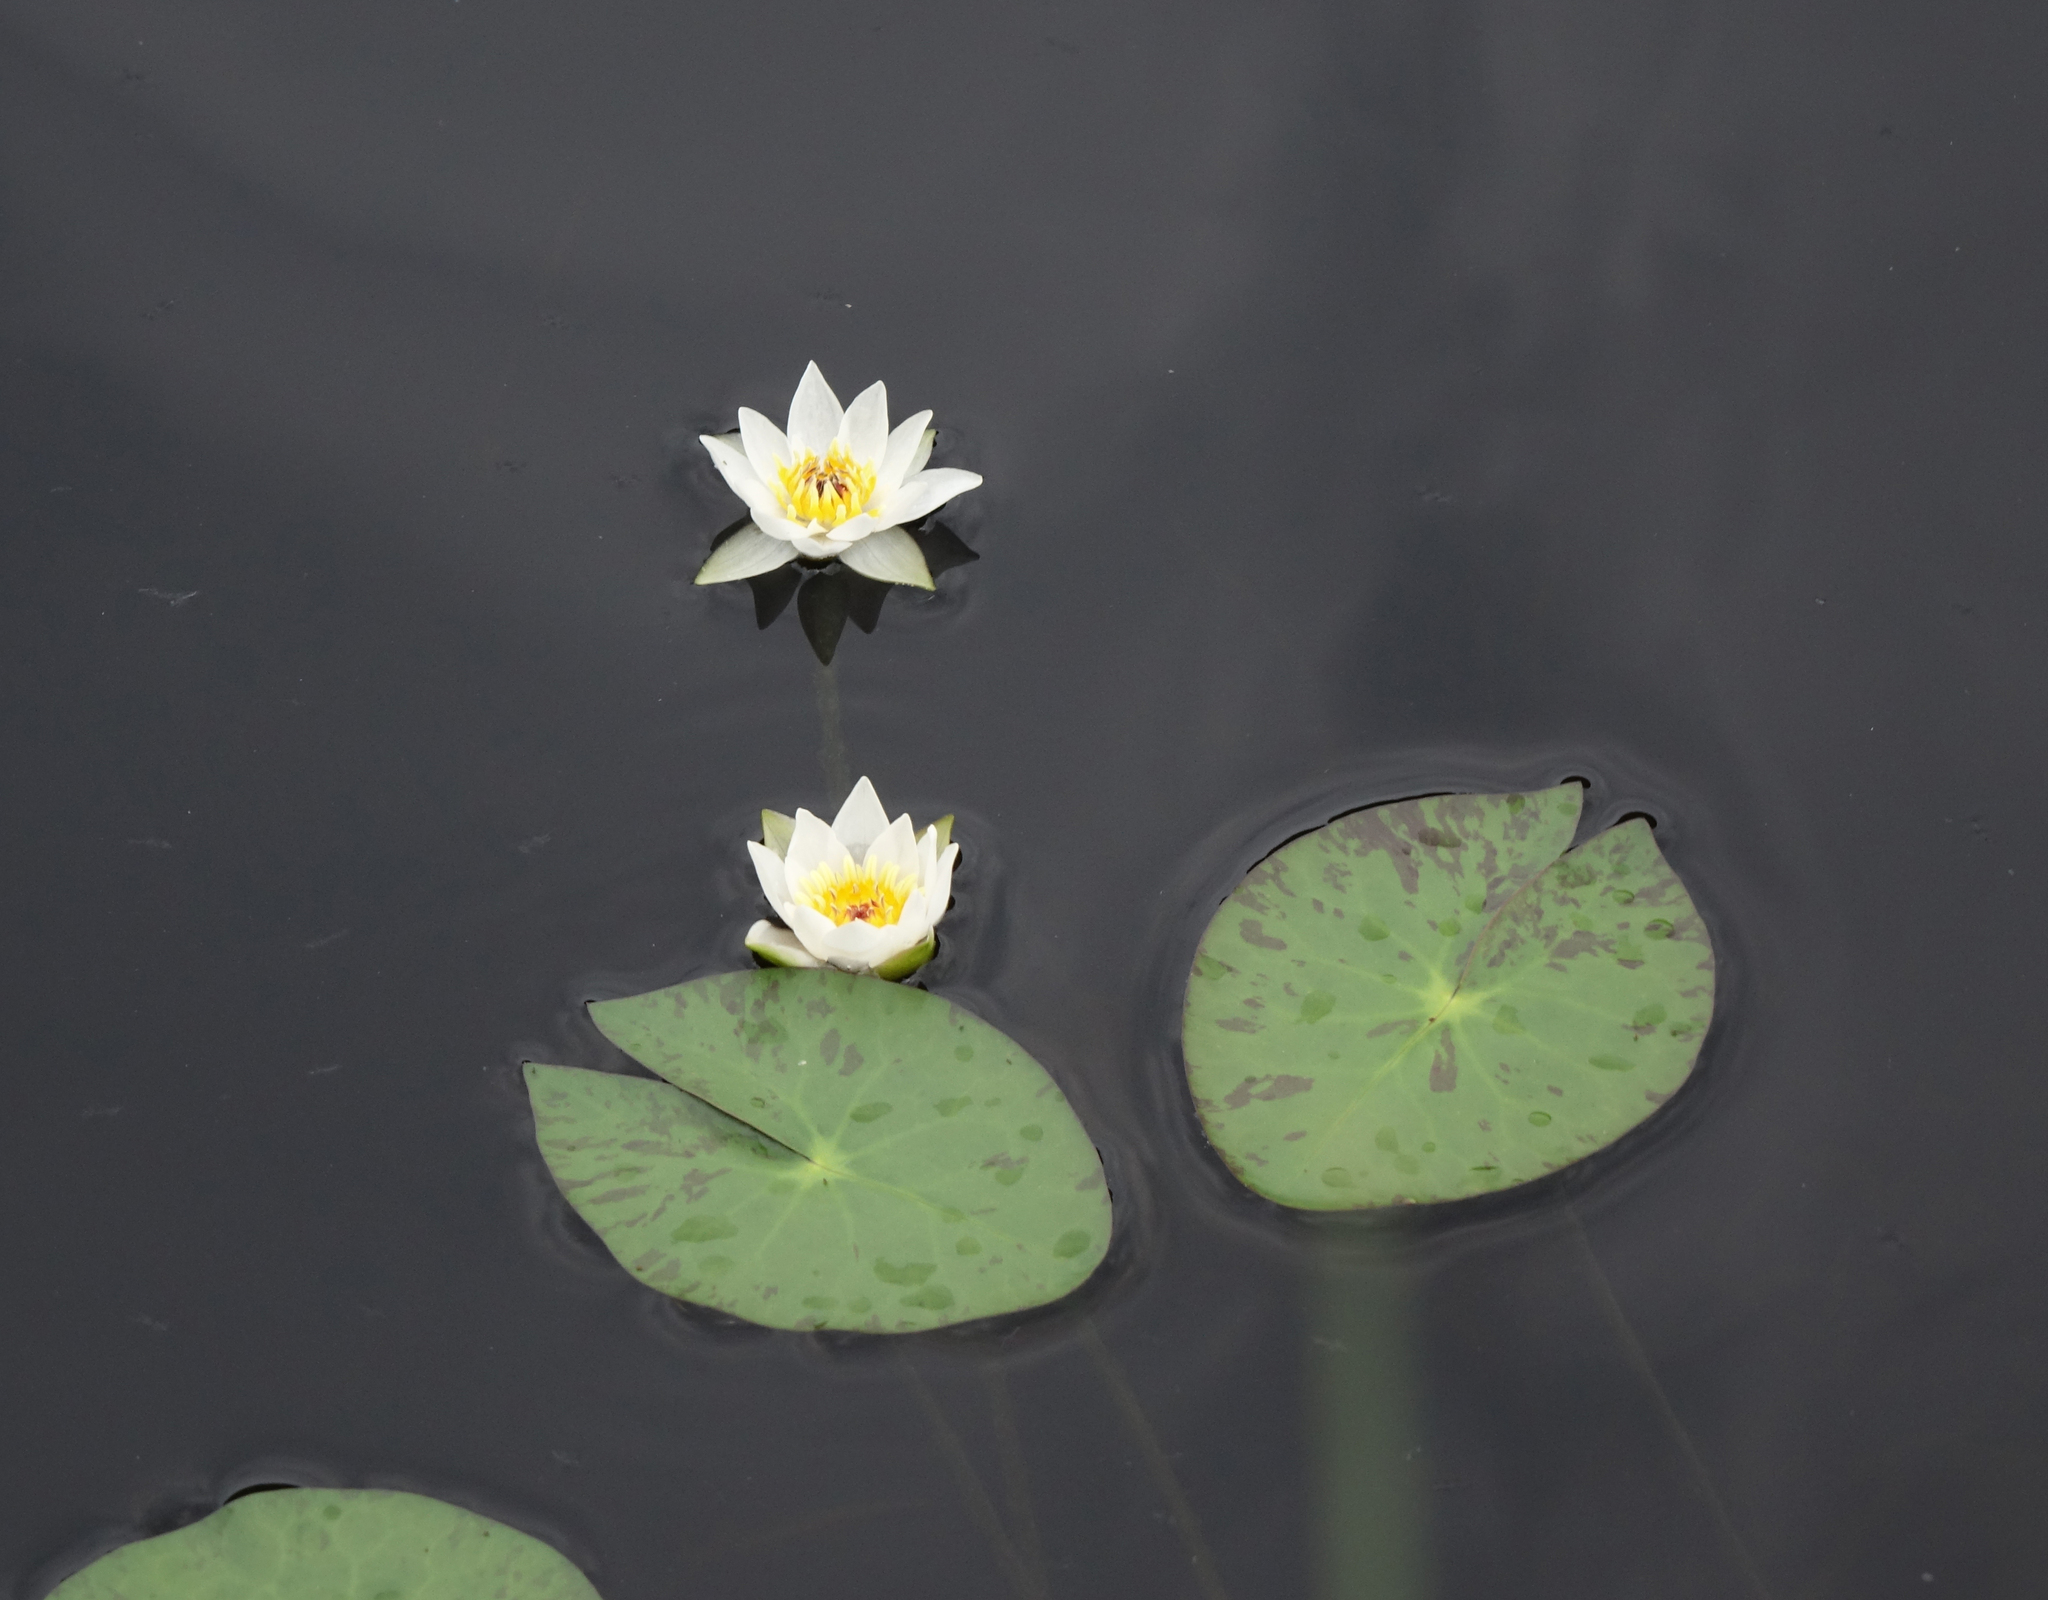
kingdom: Plantae
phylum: Tracheophyta
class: Magnoliopsida
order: Nymphaeales
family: Nymphaeaceae
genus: Nymphaea
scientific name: Nymphaea tetragona
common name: Pygmy water-lily
